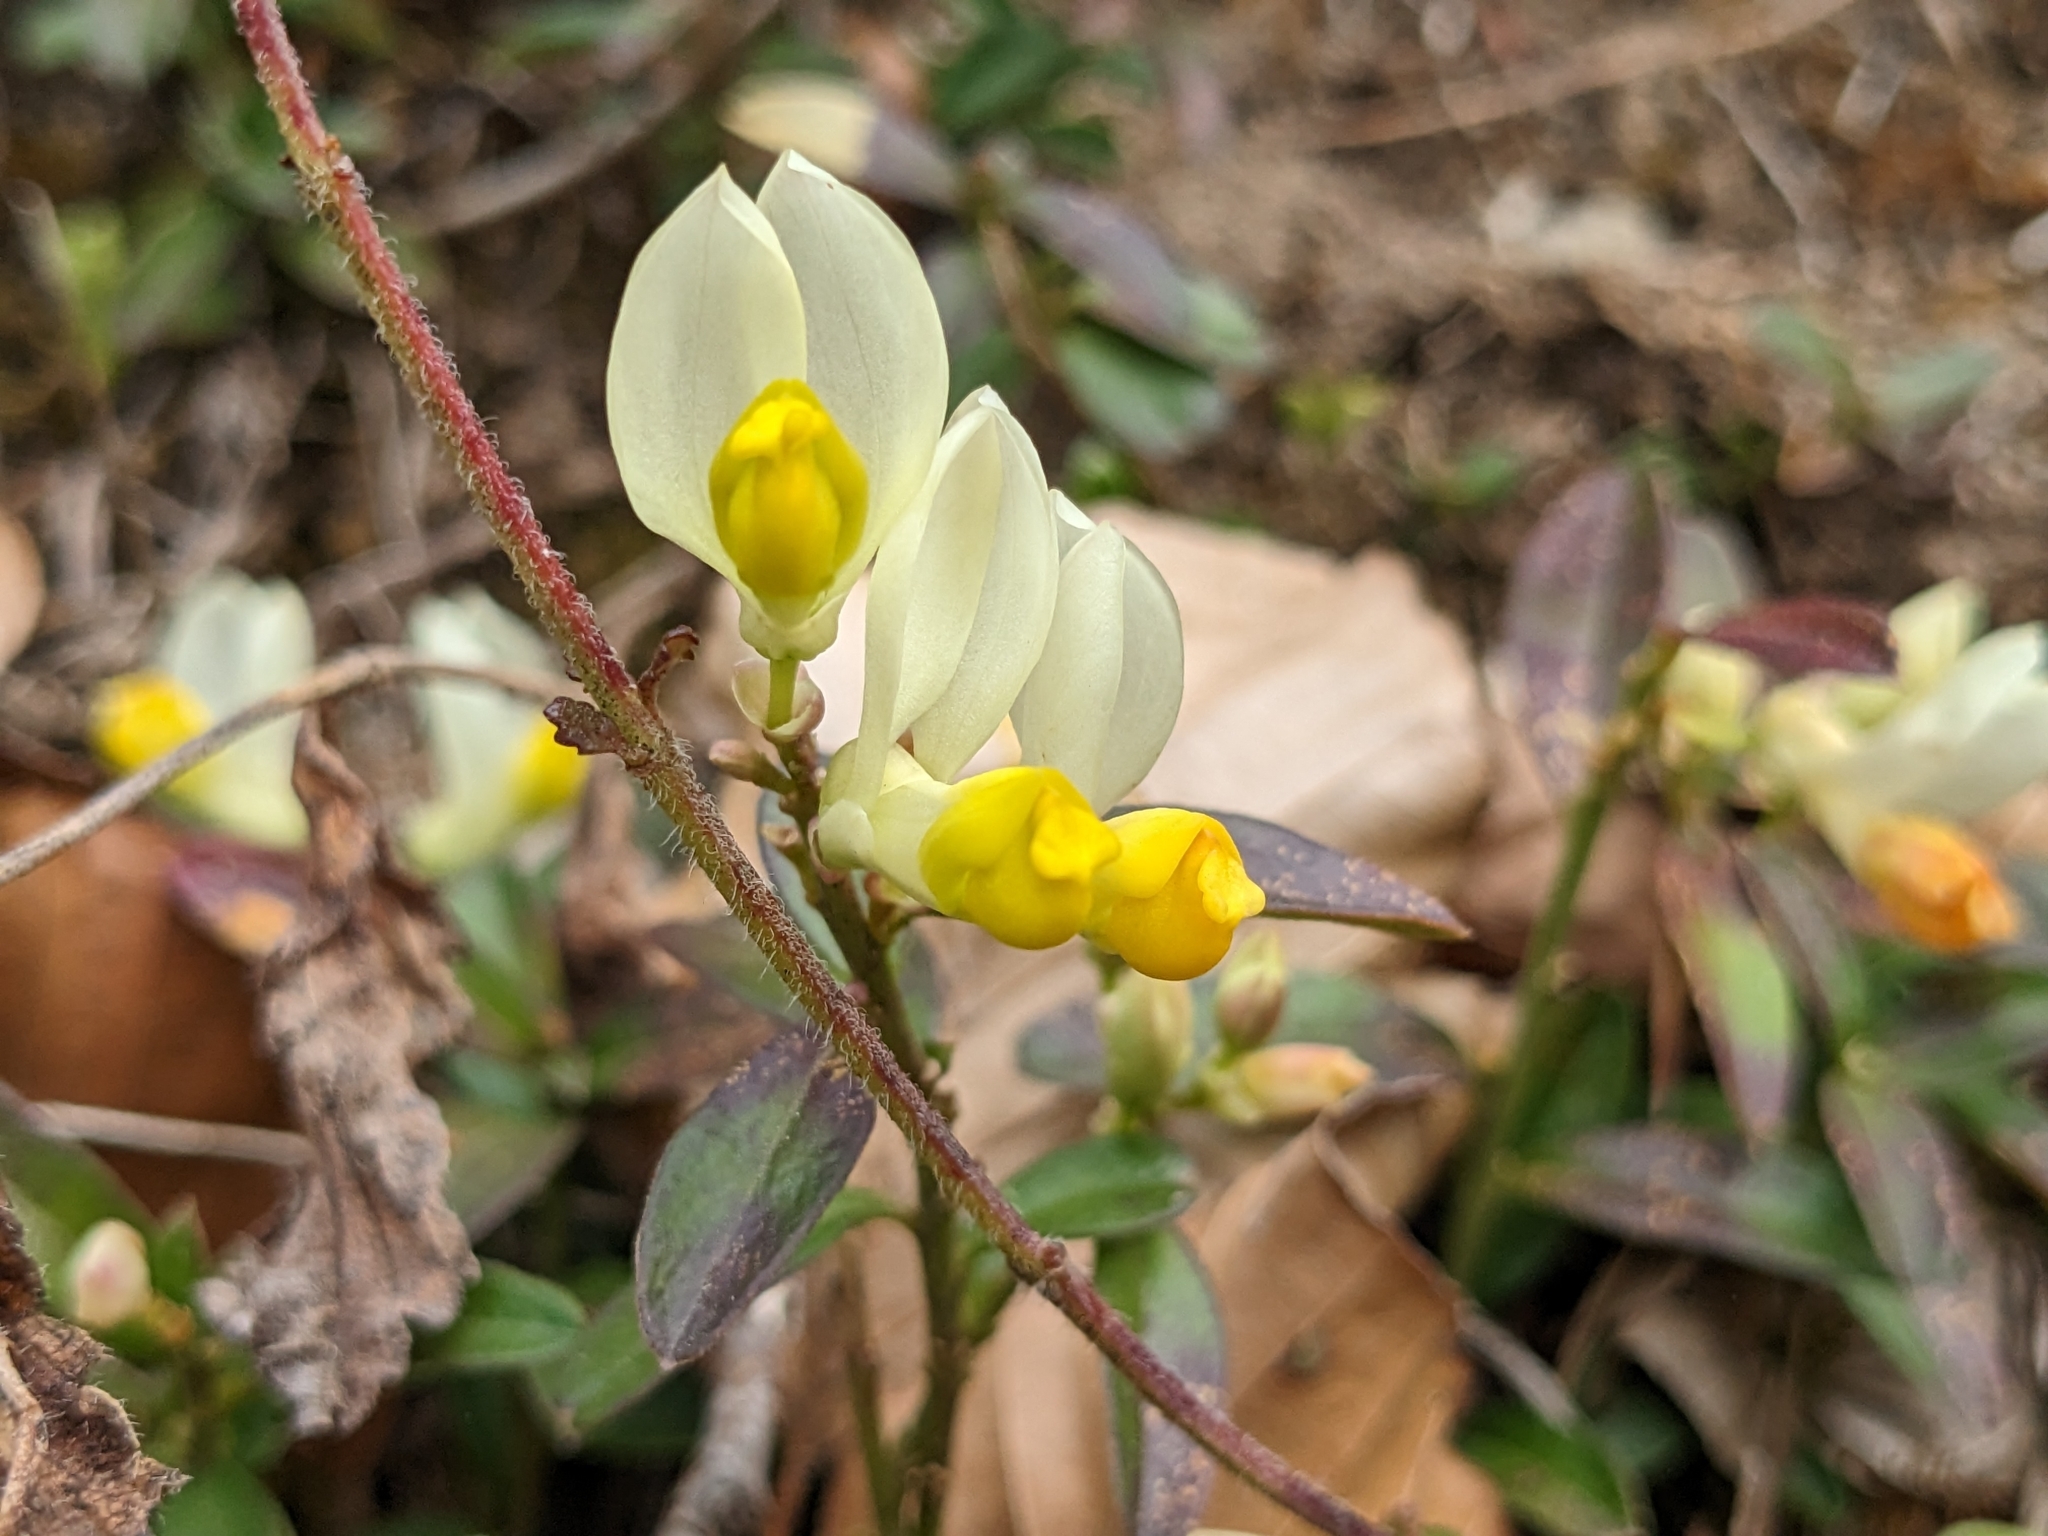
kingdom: Plantae
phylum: Tracheophyta
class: Magnoliopsida
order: Fabales
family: Polygalaceae
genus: Polygaloides
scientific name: Polygaloides chamaebuxus
